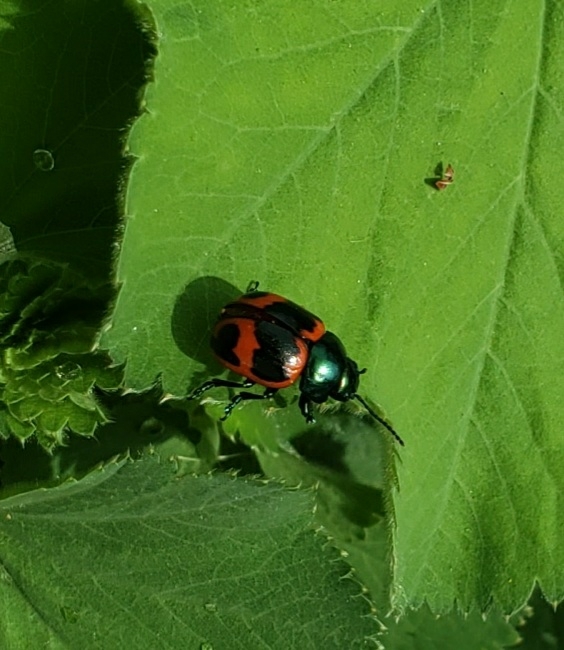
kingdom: Animalia
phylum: Arthropoda
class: Insecta
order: Coleoptera
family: Chrysomelidae
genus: Labidomera
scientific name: Labidomera clivicollis
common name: Swamp milkweed leaf beetle
